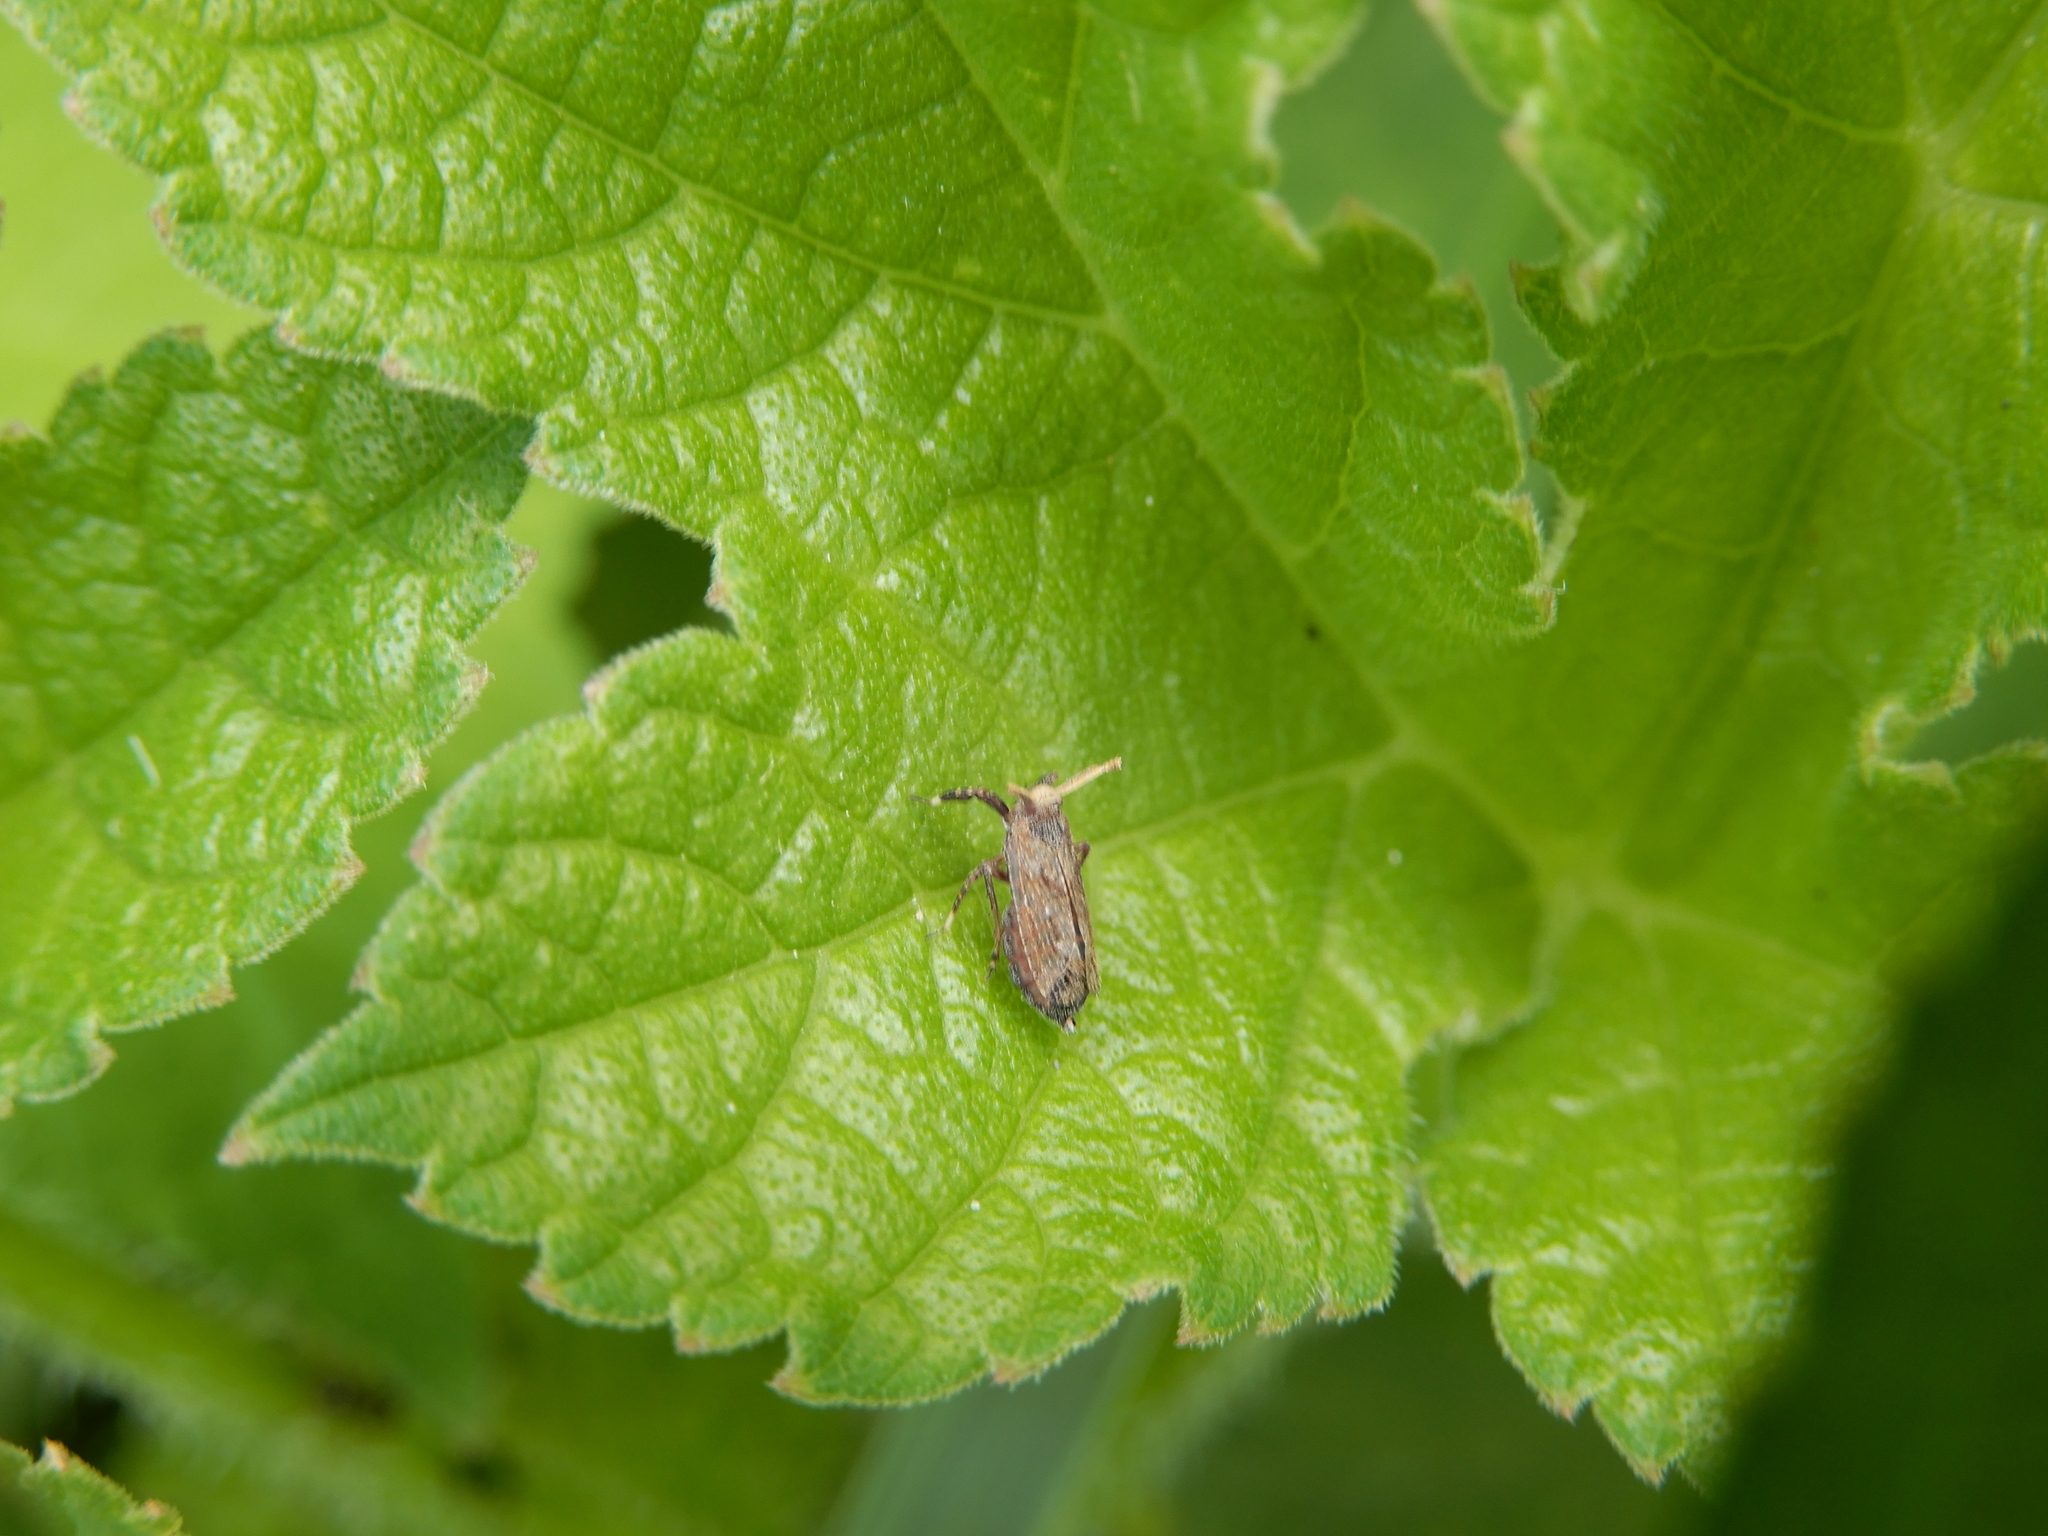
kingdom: Animalia
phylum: Arthropoda
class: Insecta
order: Hemiptera
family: Delphacidae
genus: Asiraca
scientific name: Asiraca clavicornis
